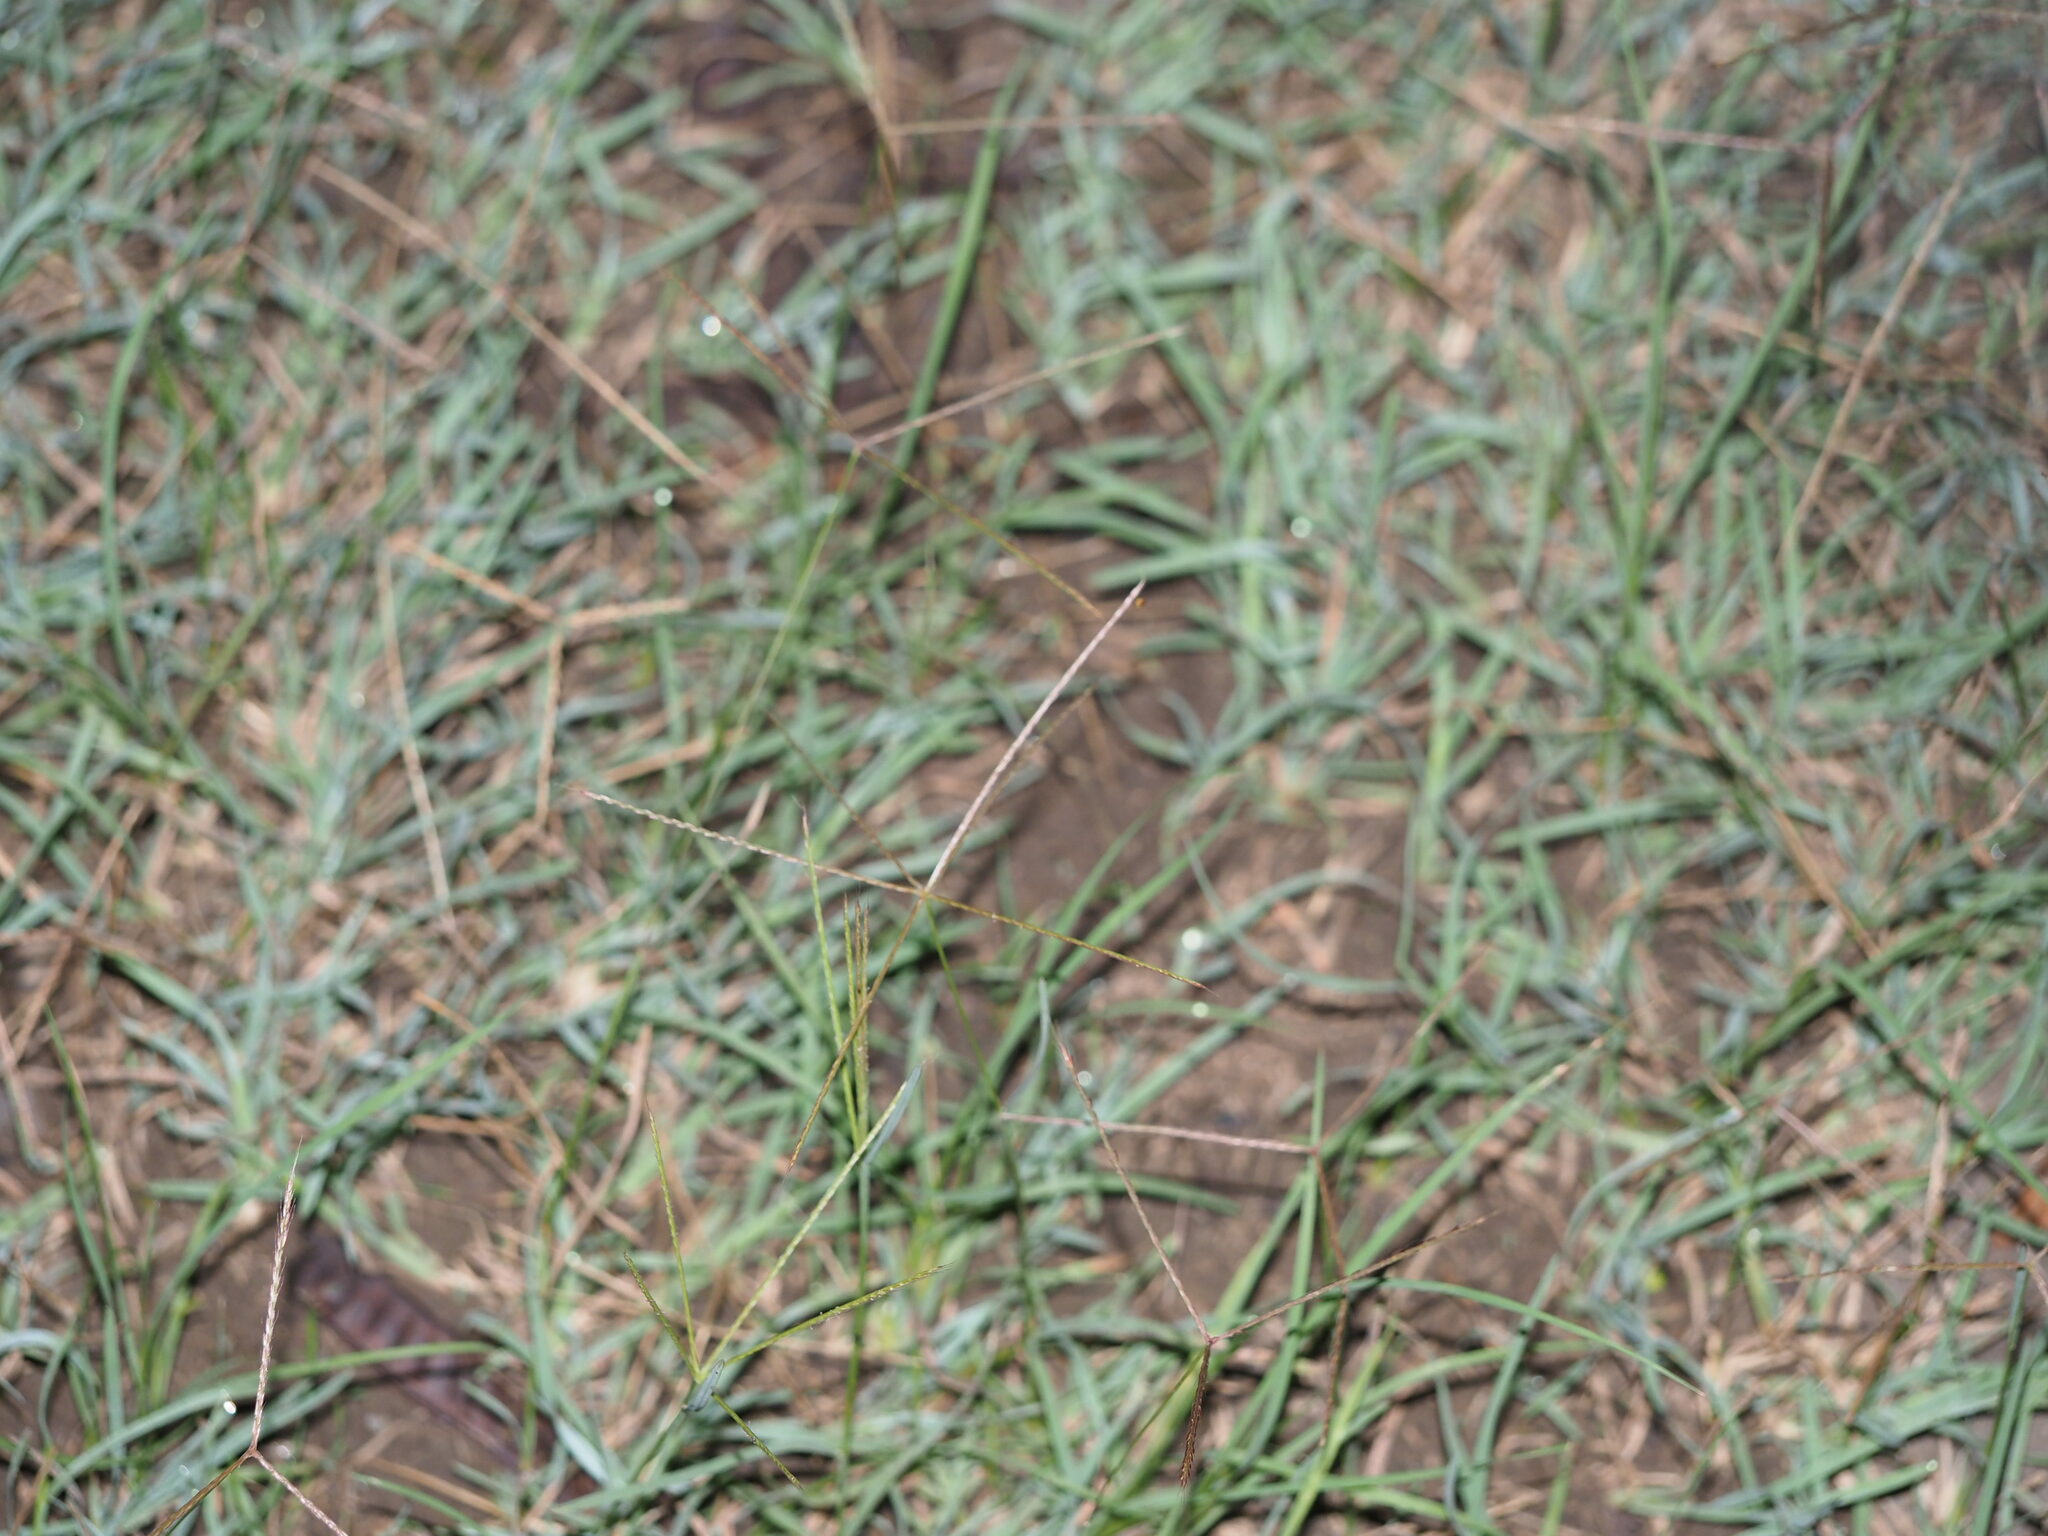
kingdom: Plantae
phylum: Tracheophyta
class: Liliopsida
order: Poales
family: Poaceae
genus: Chloris
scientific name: Chloris divaricata
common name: Spreading windmill grass
